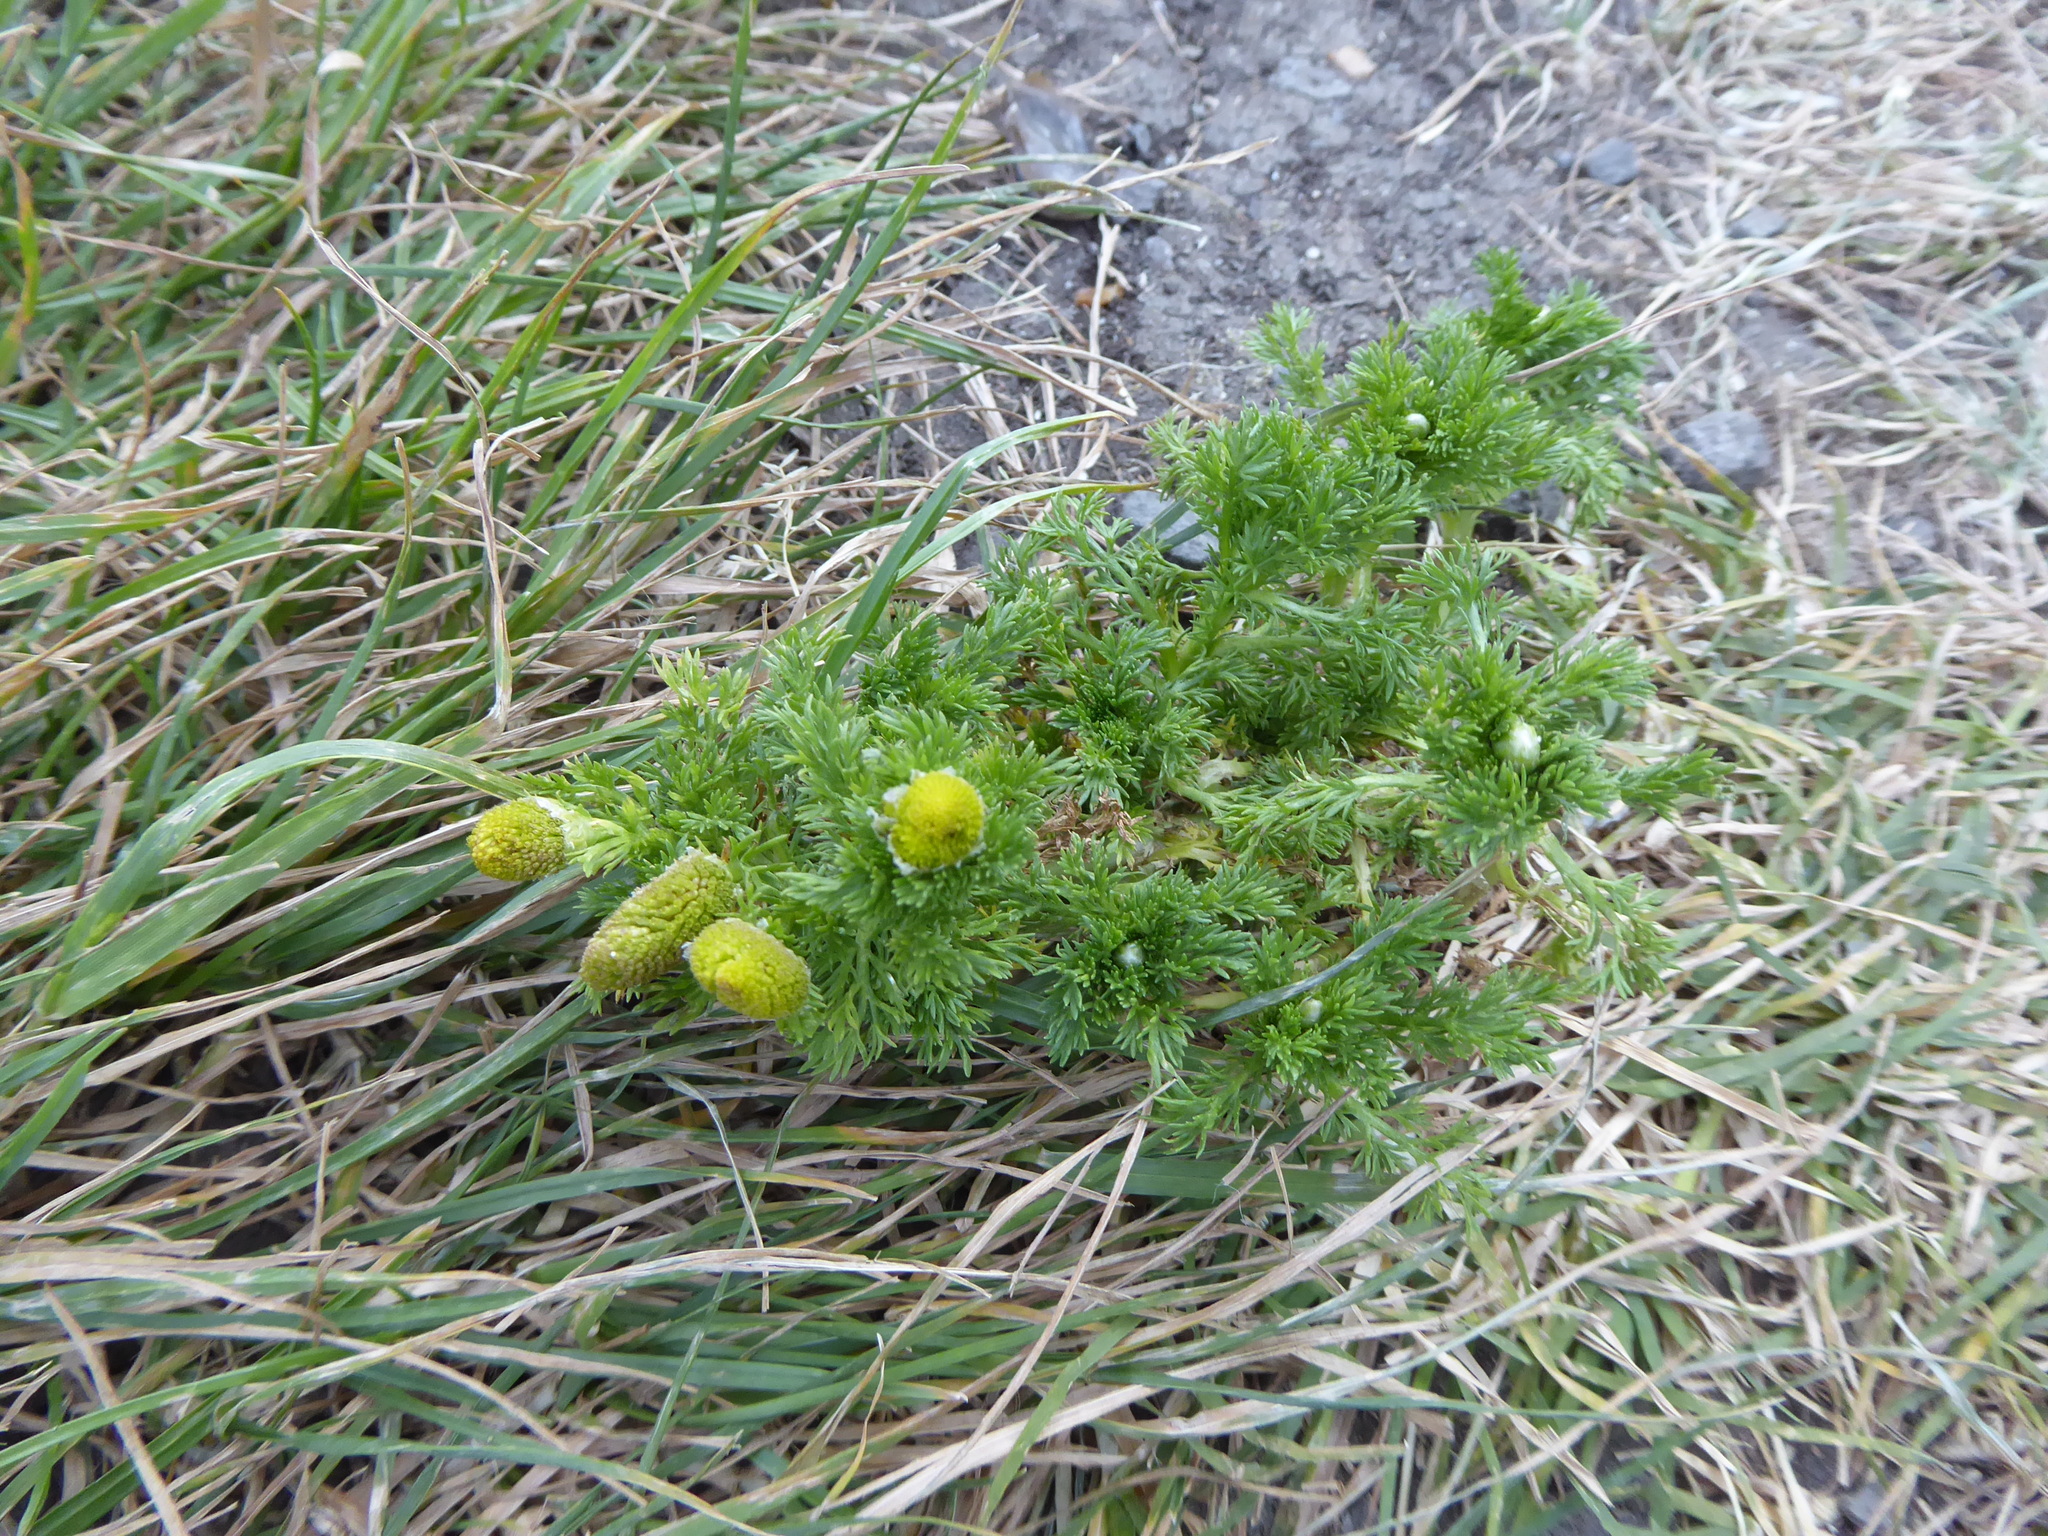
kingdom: Plantae
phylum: Tracheophyta
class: Magnoliopsida
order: Asterales
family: Asteraceae
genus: Matricaria
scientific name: Matricaria discoidea
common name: Disc mayweed
